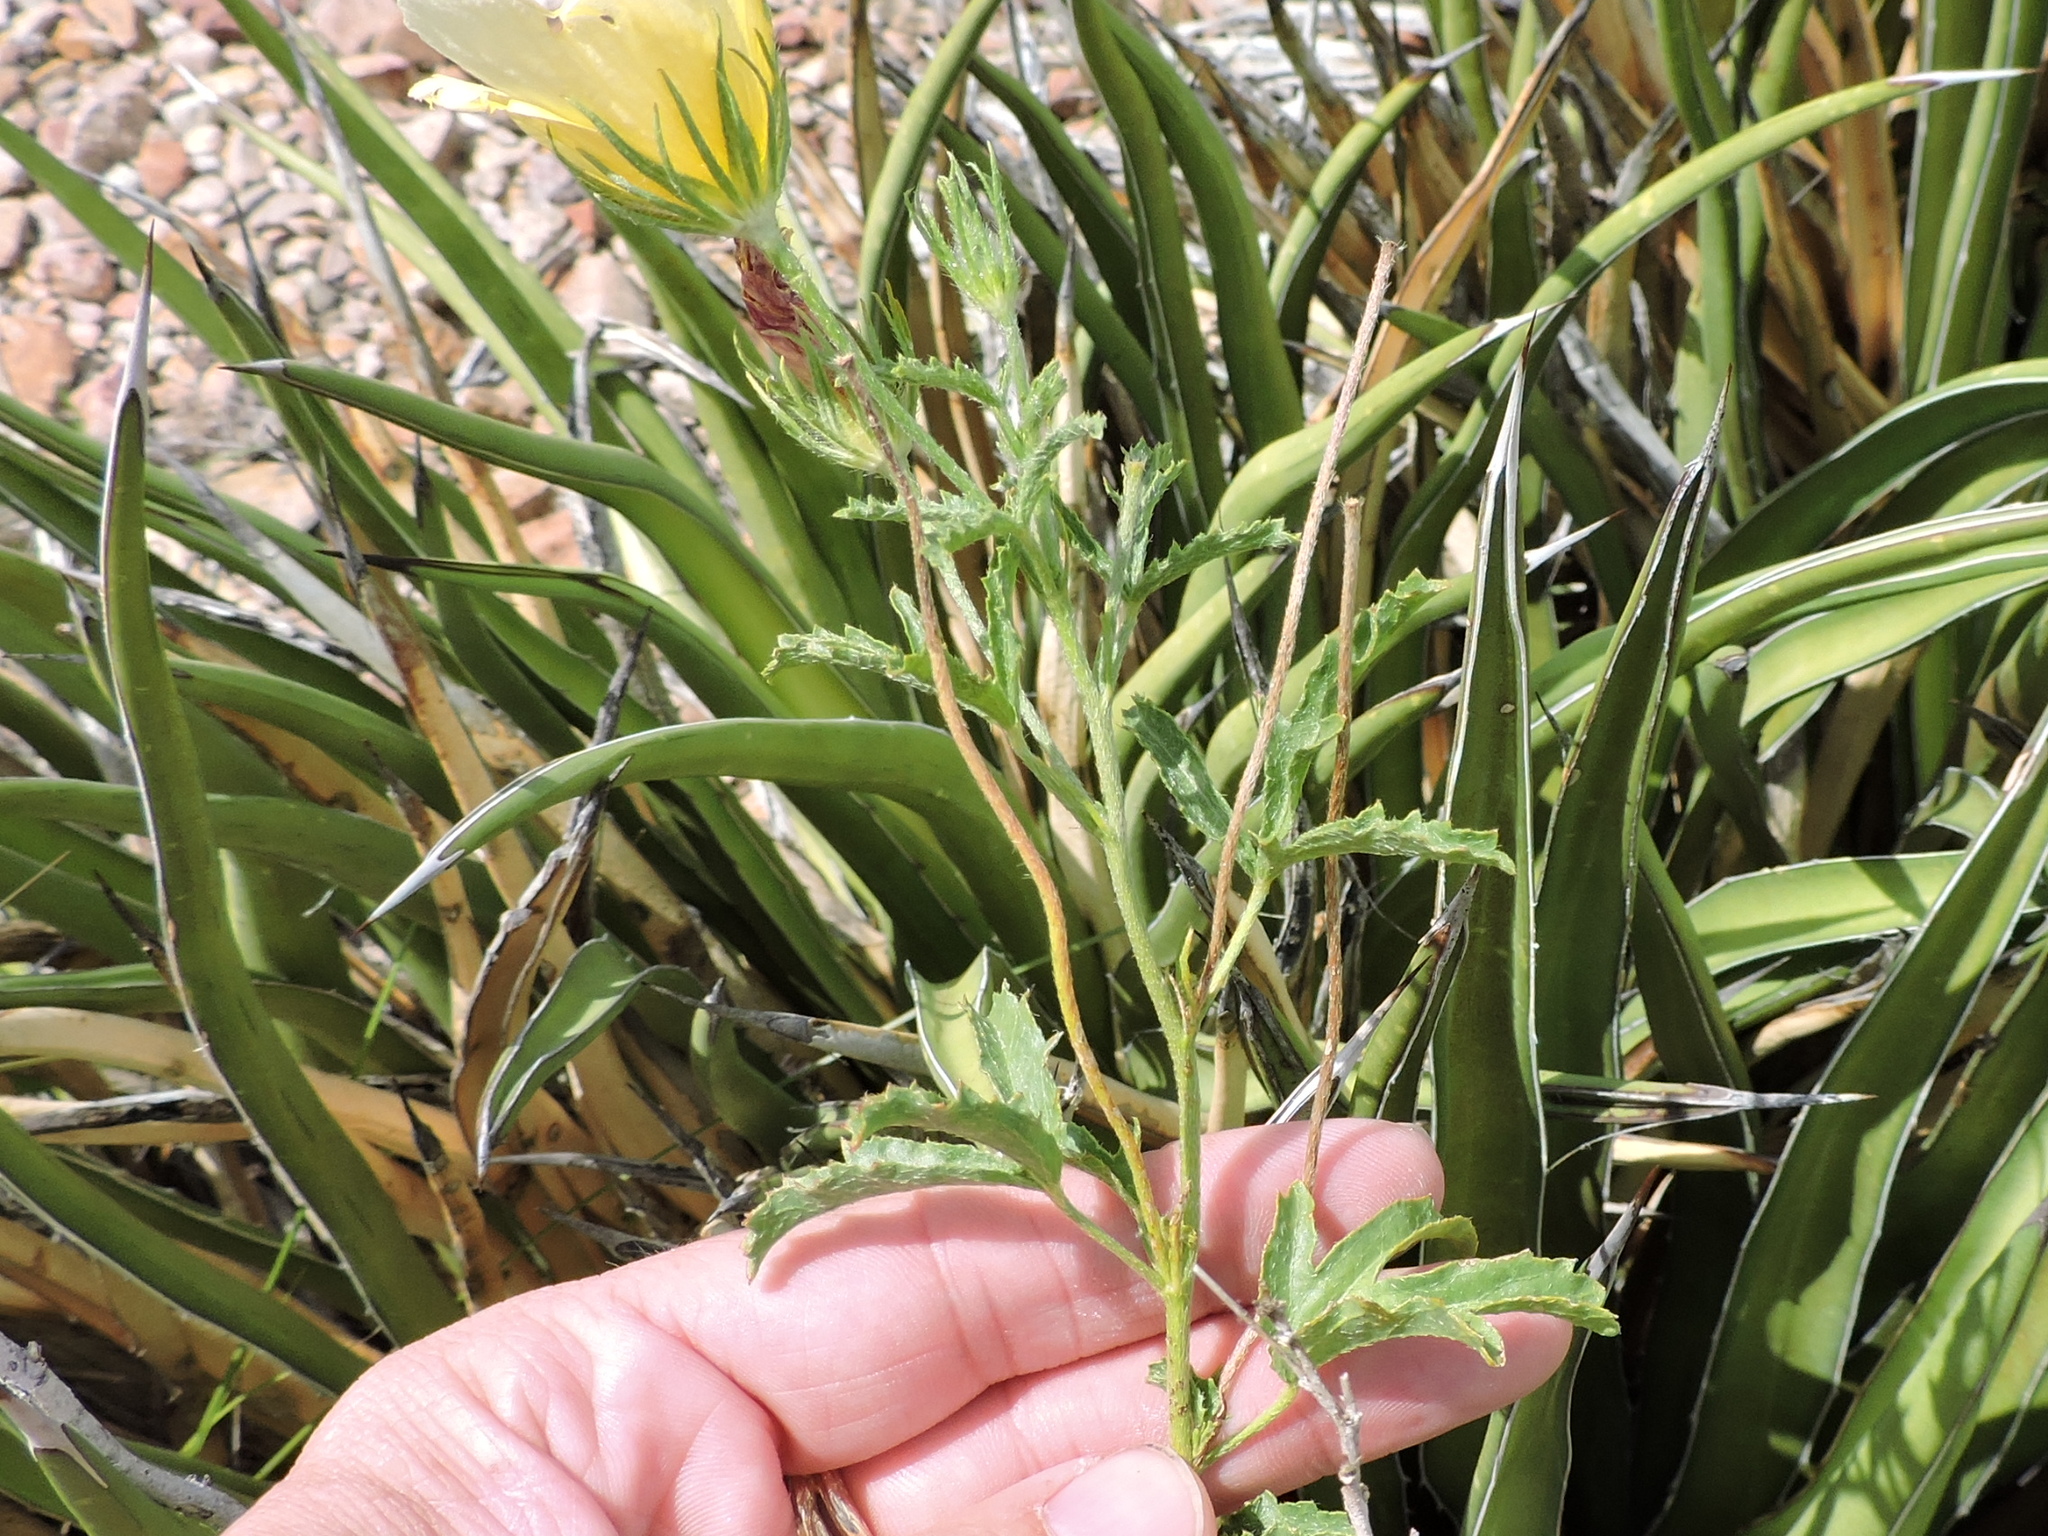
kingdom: Plantae
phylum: Tracheophyta
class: Magnoliopsida
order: Malvales
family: Malvaceae
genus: Hibiscus
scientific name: Hibiscus coulteri
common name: Desert rose-mallow
